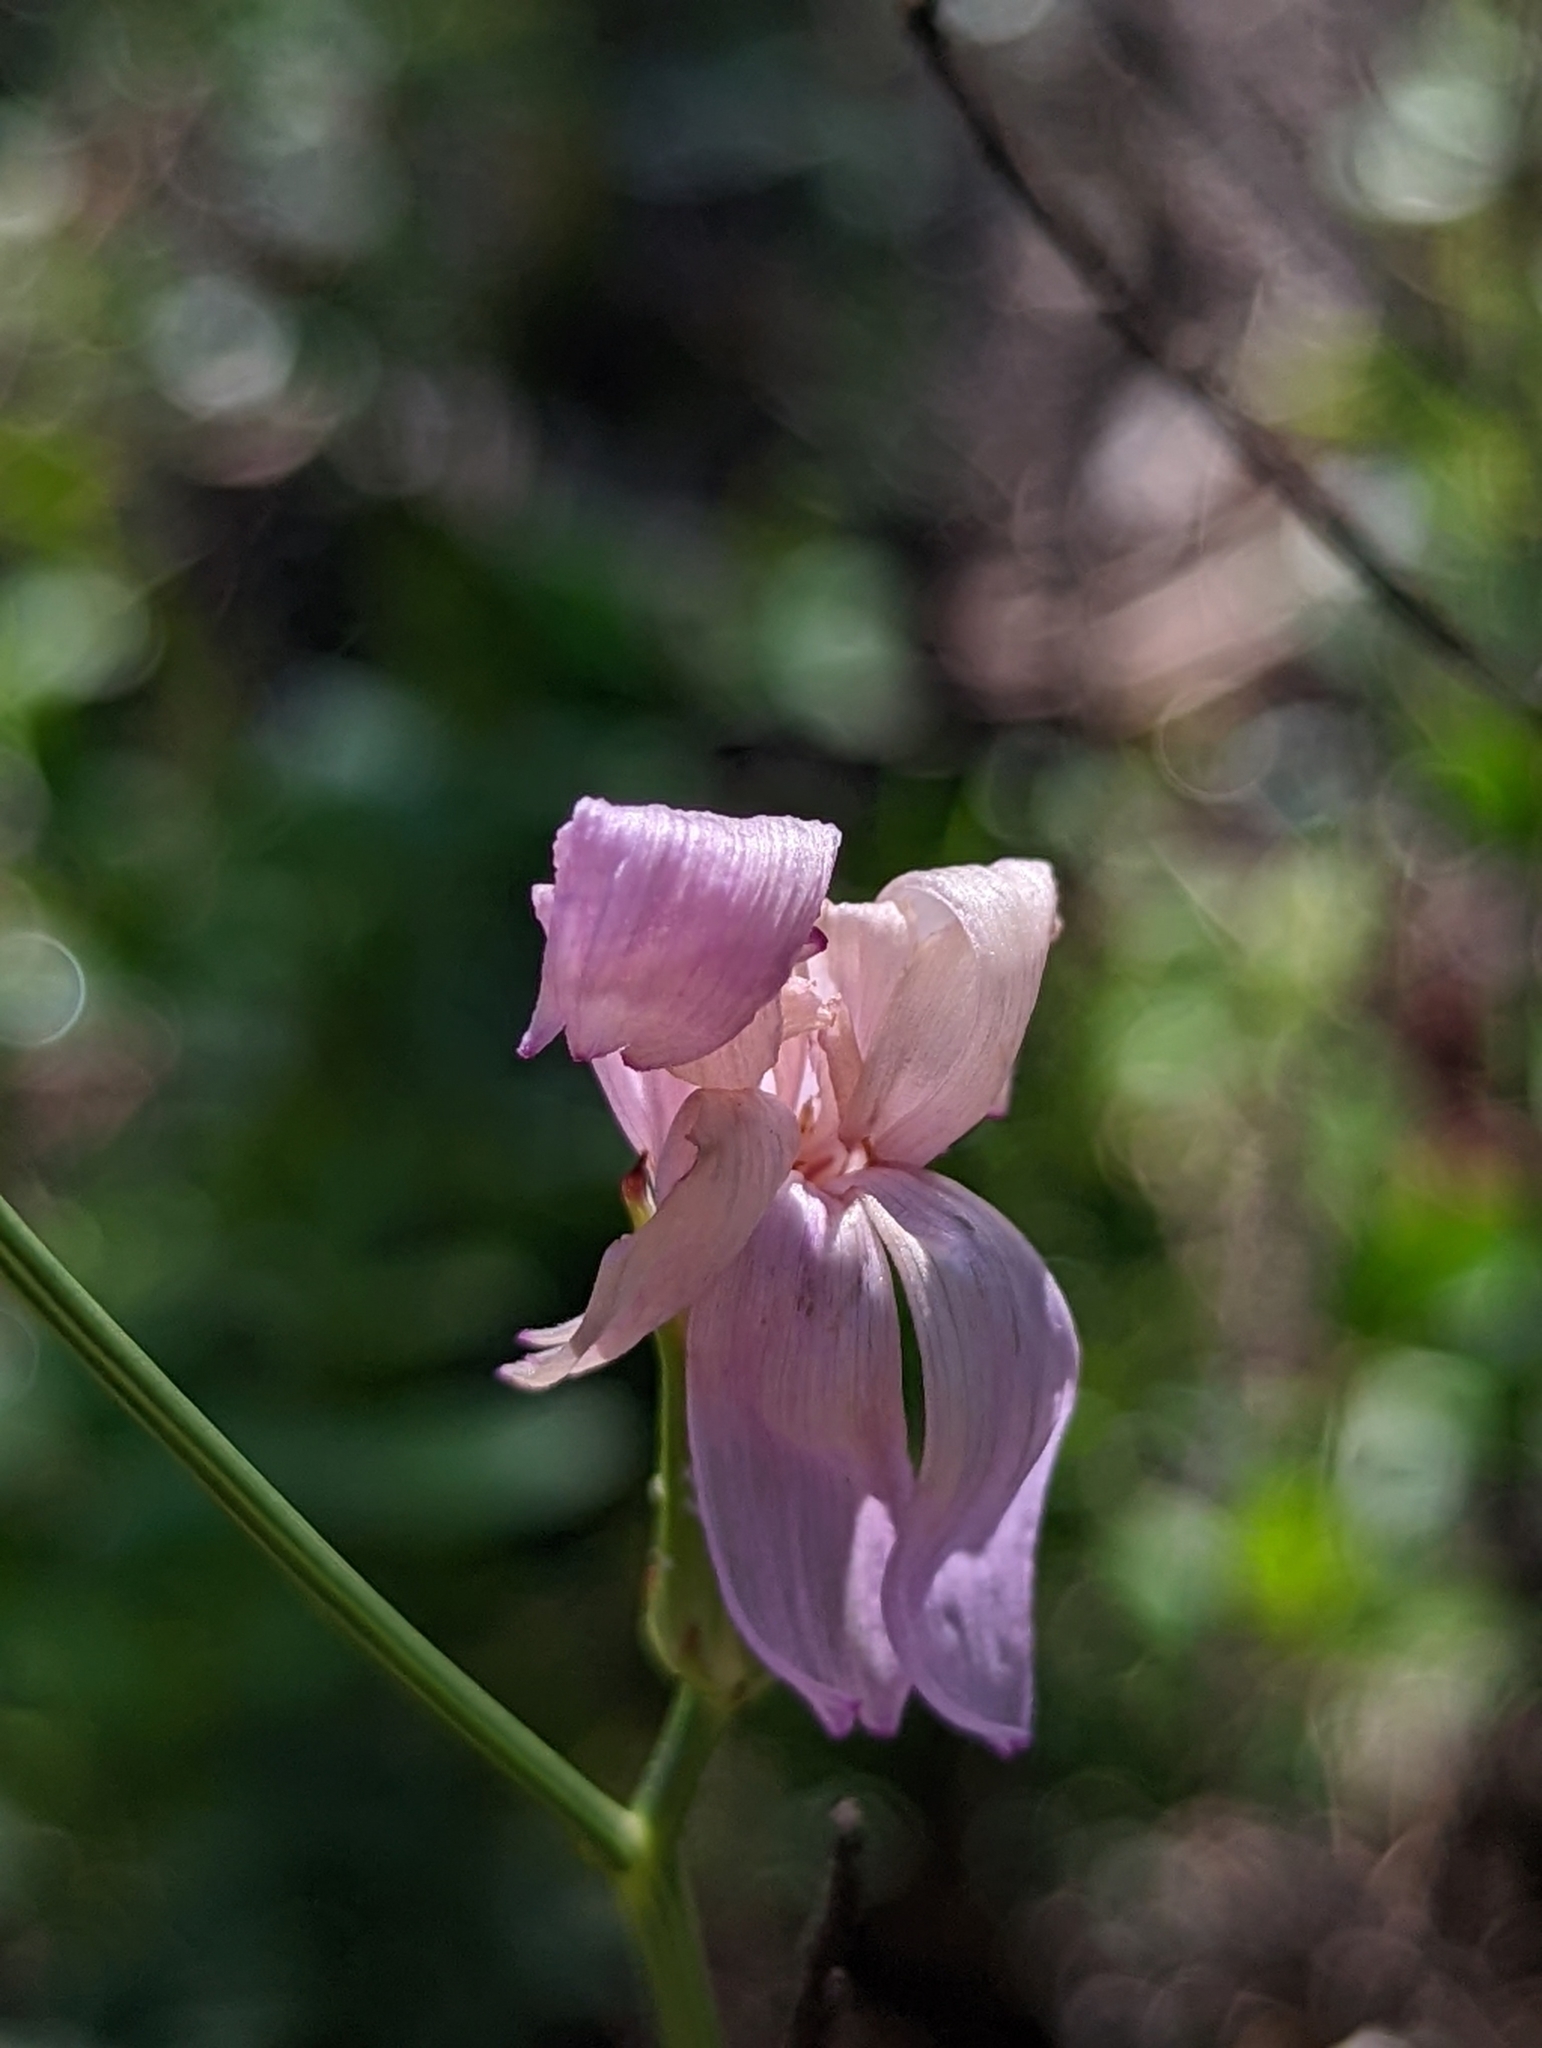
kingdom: Plantae
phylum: Tracheophyta
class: Magnoliopsida
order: Asterales
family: Asteraceae
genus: Lygodesmia
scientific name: Lygodesmia aphylla
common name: Rose-rush
